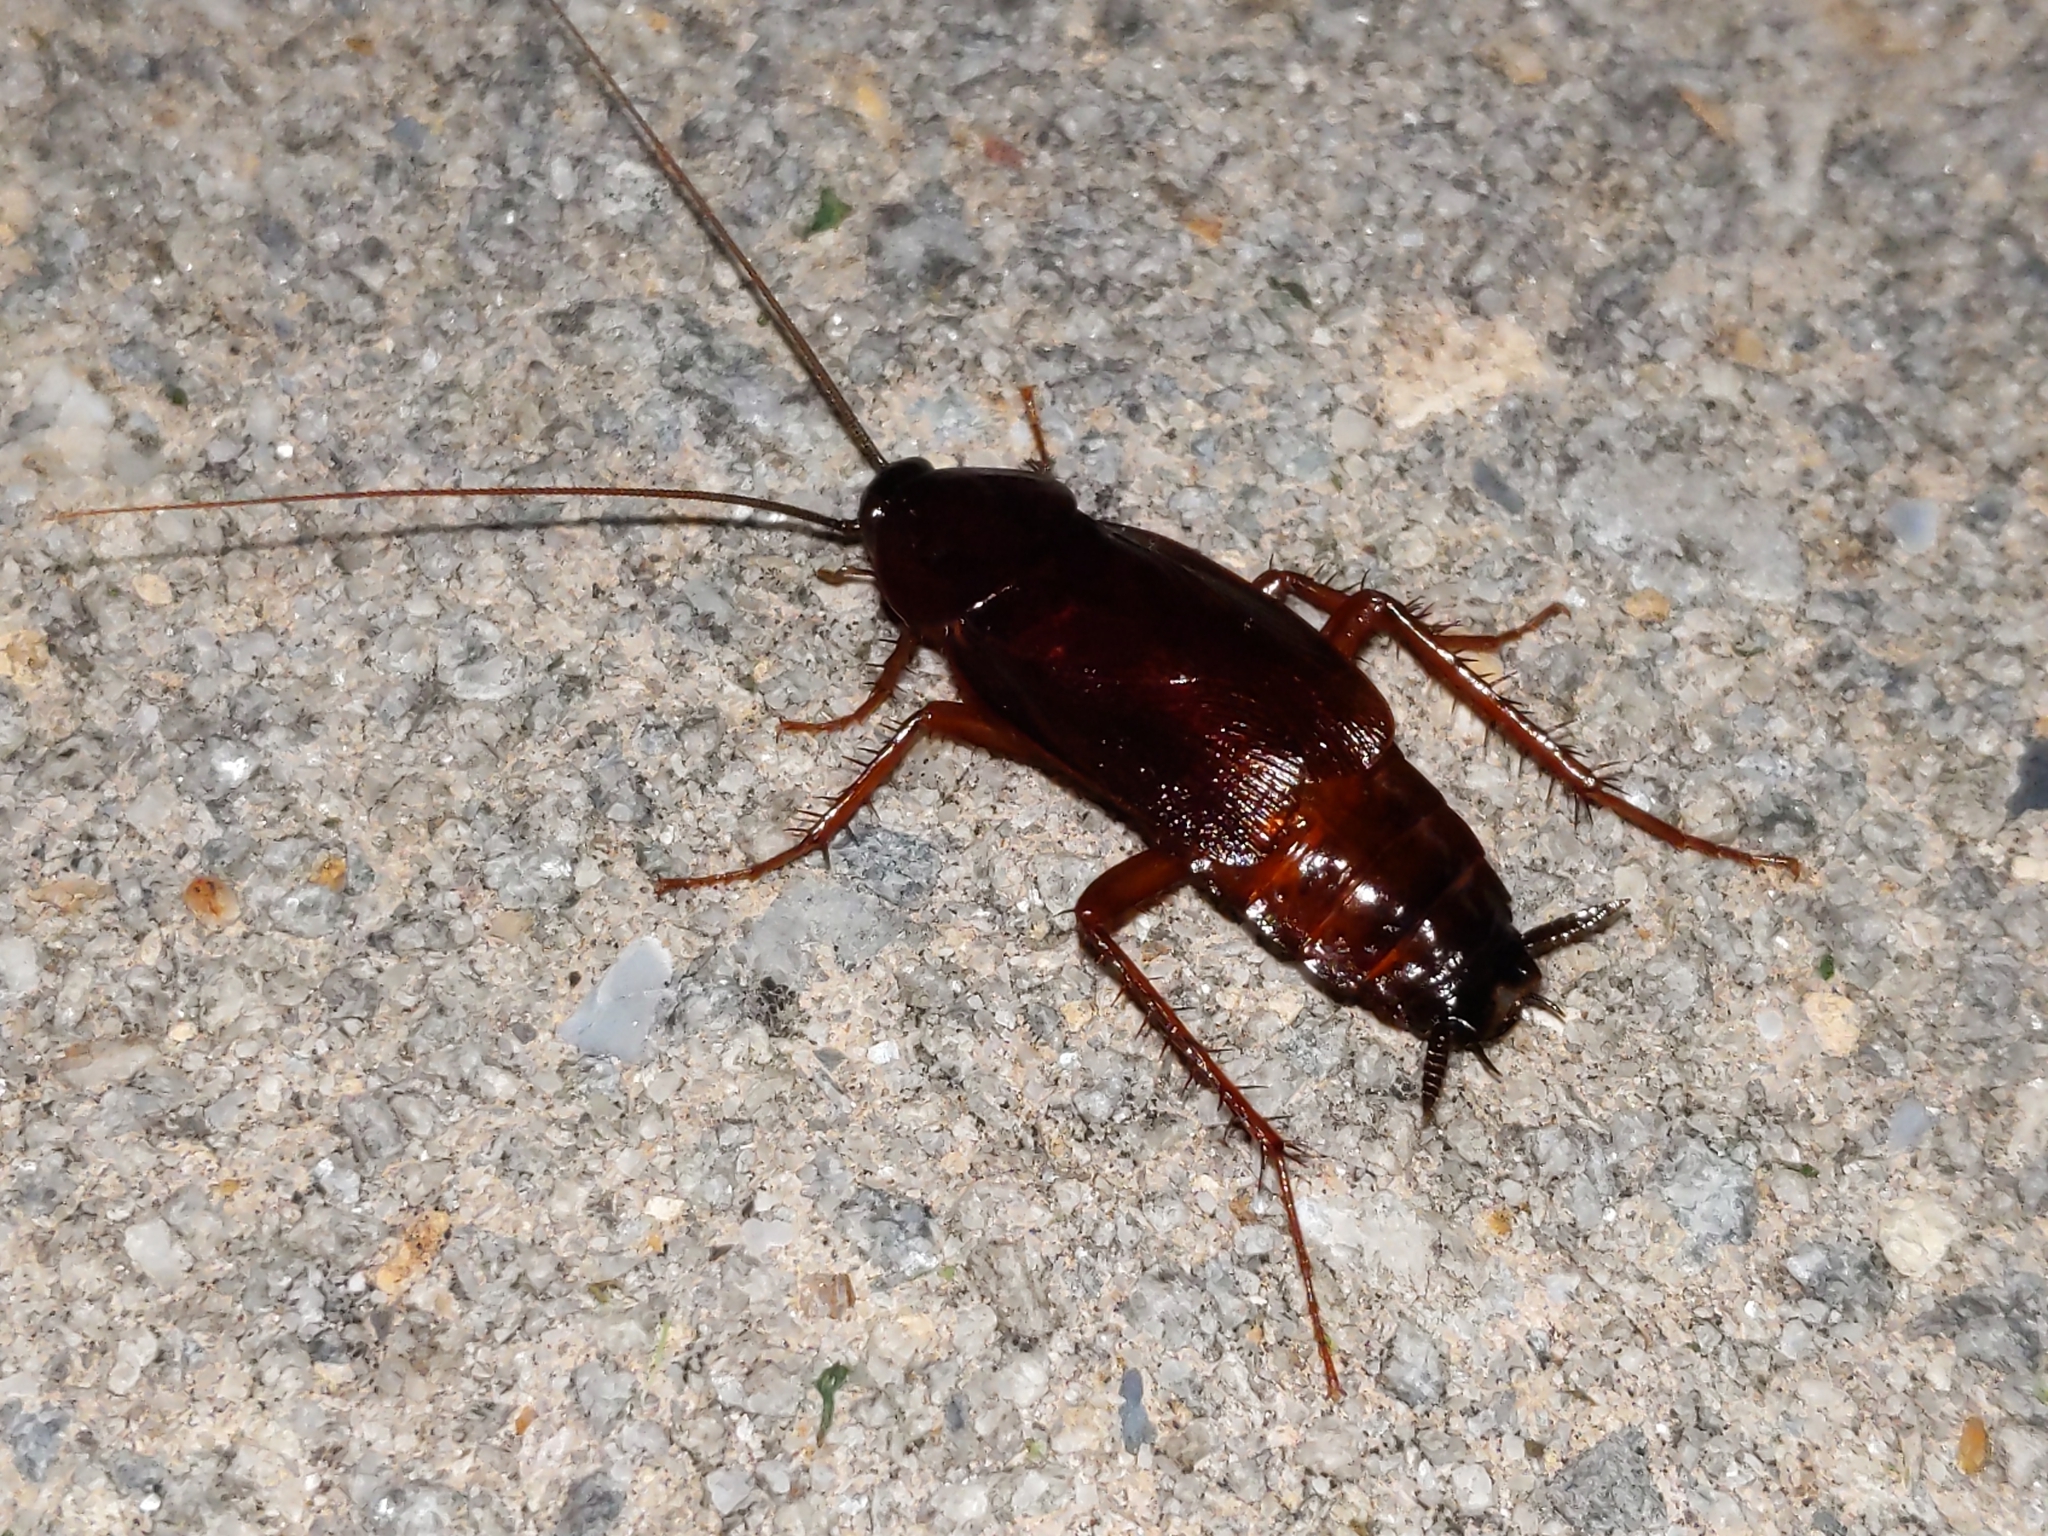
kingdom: Animalia
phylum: Arthropoda
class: Insecta
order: Blattodea
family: Blattidae
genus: Blatta
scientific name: Blatta orientalis
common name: Oriental cockroach
